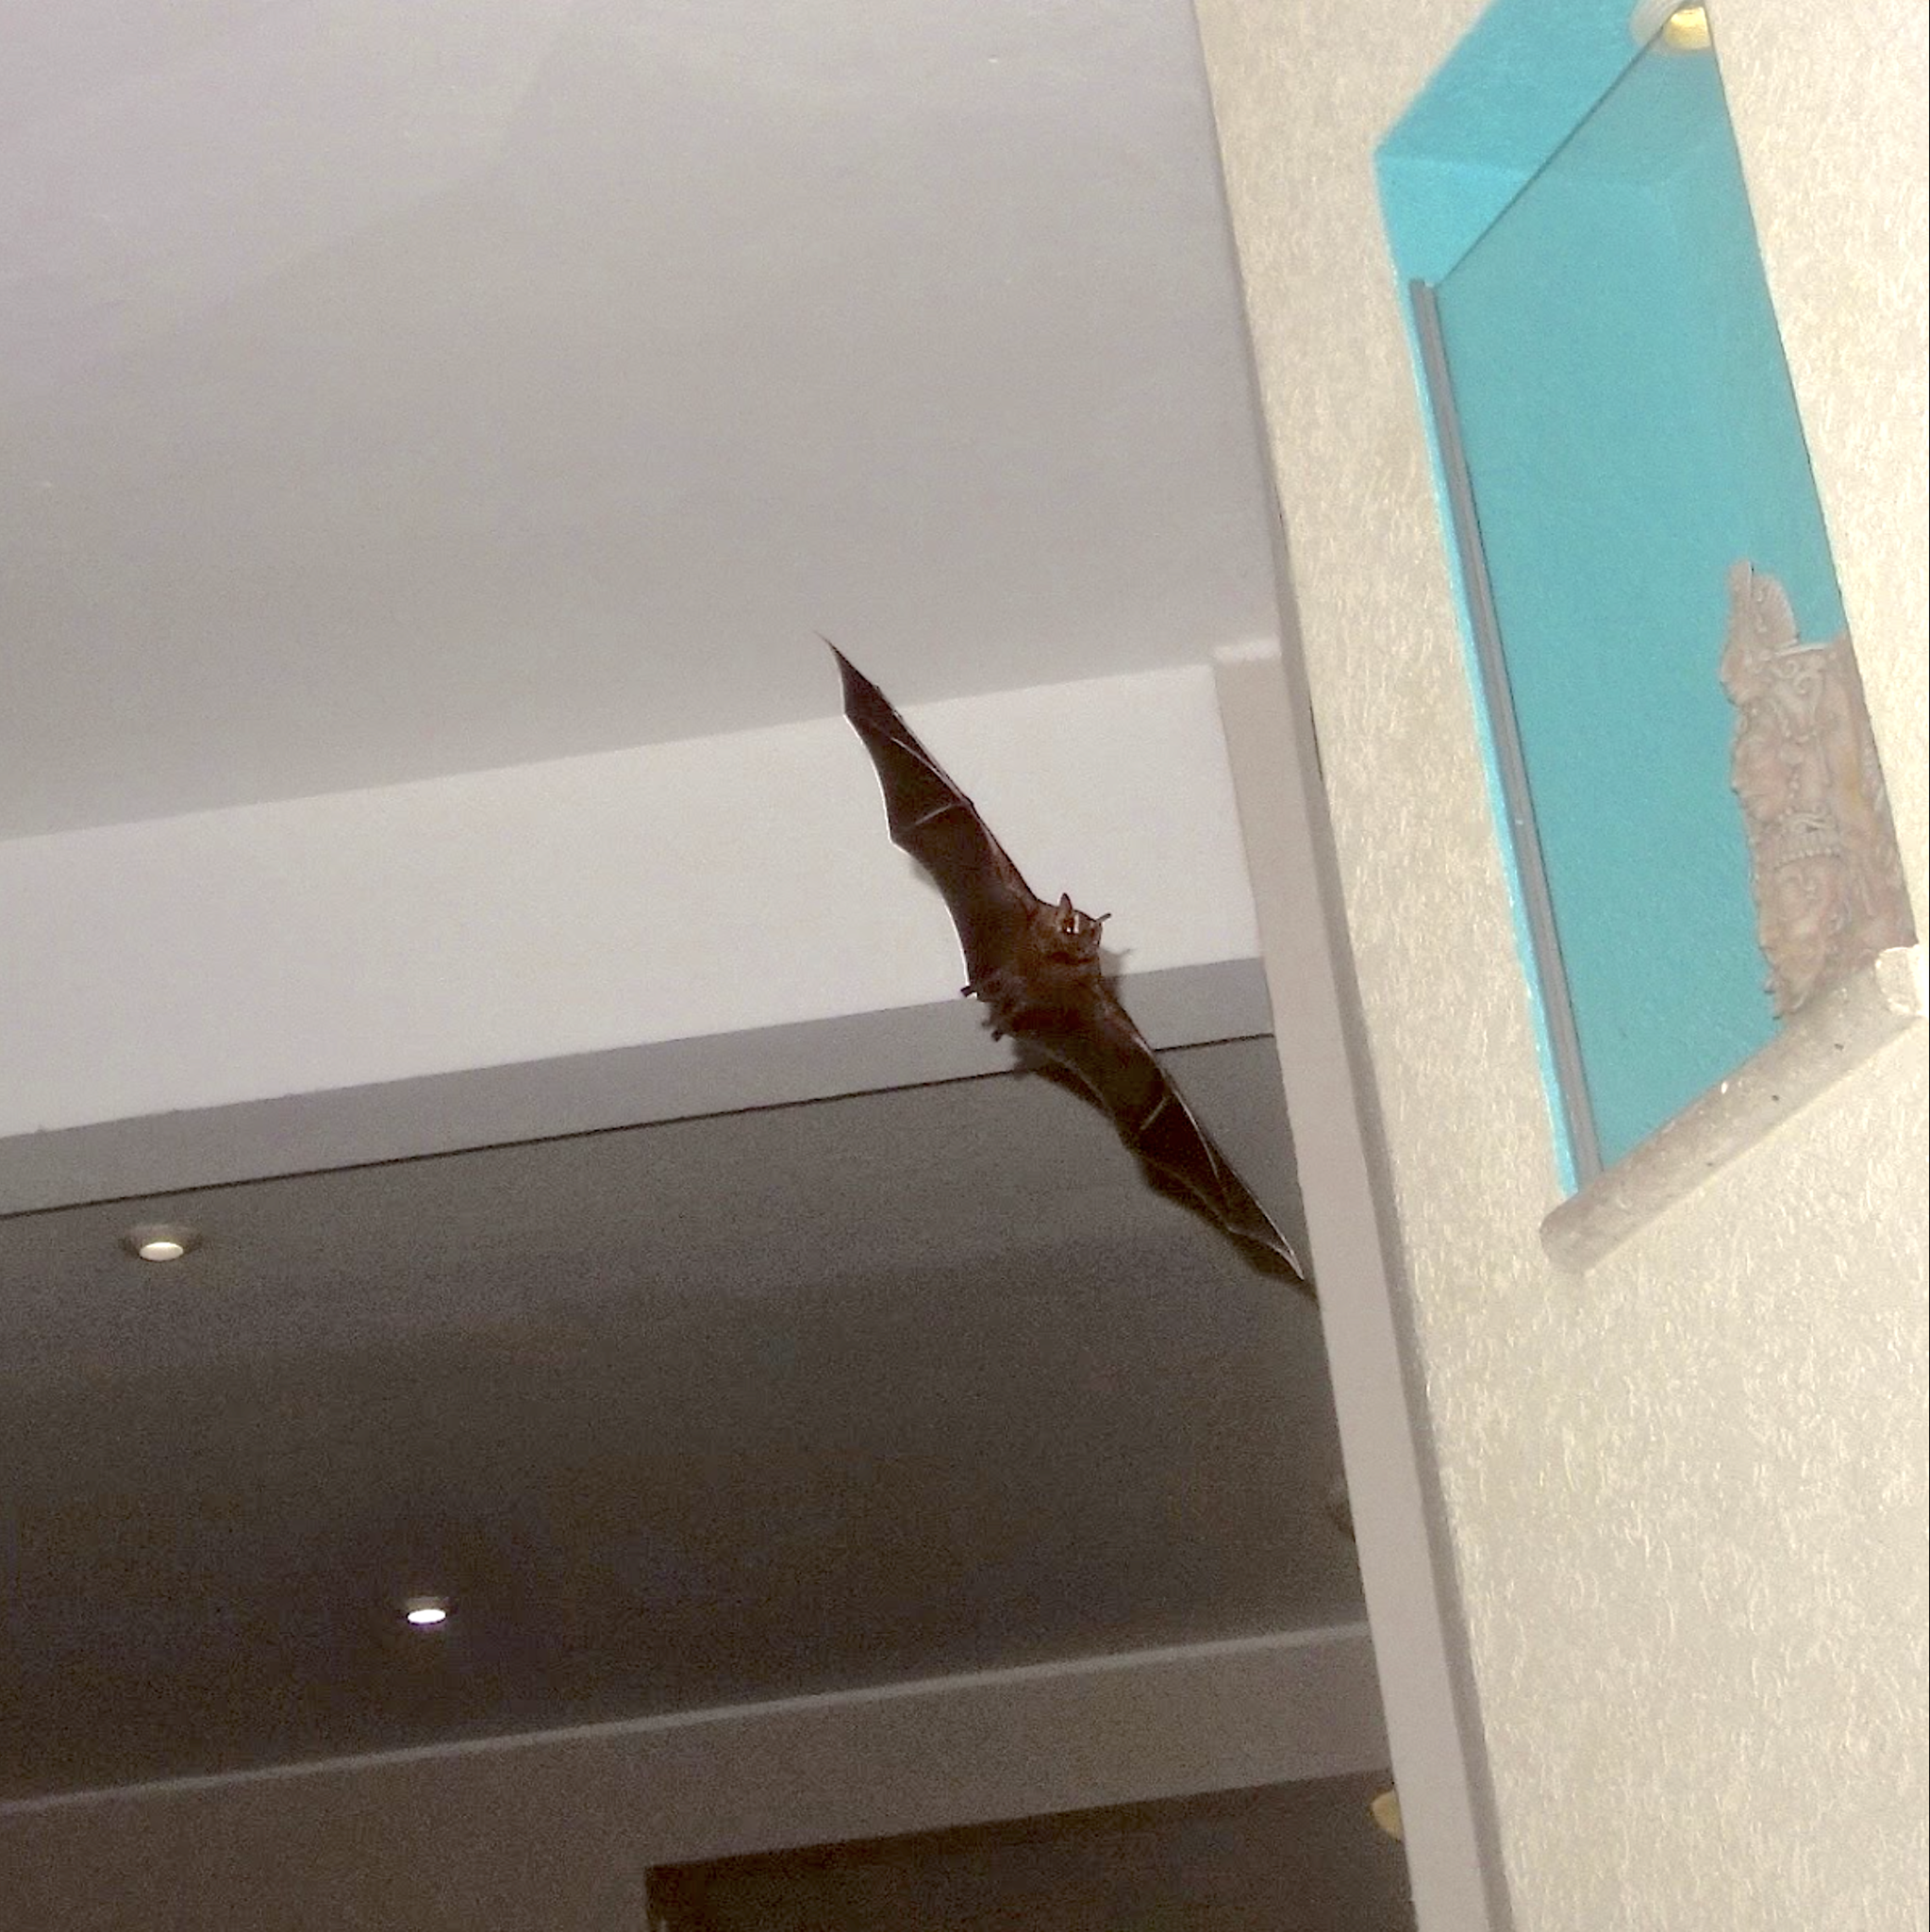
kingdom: Animalia
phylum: Chordata
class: Mammalia
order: Chiroptera
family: Phyllostomidae
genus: Artibeus
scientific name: Artibeus lituratus
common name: Great fruit-eating bat
